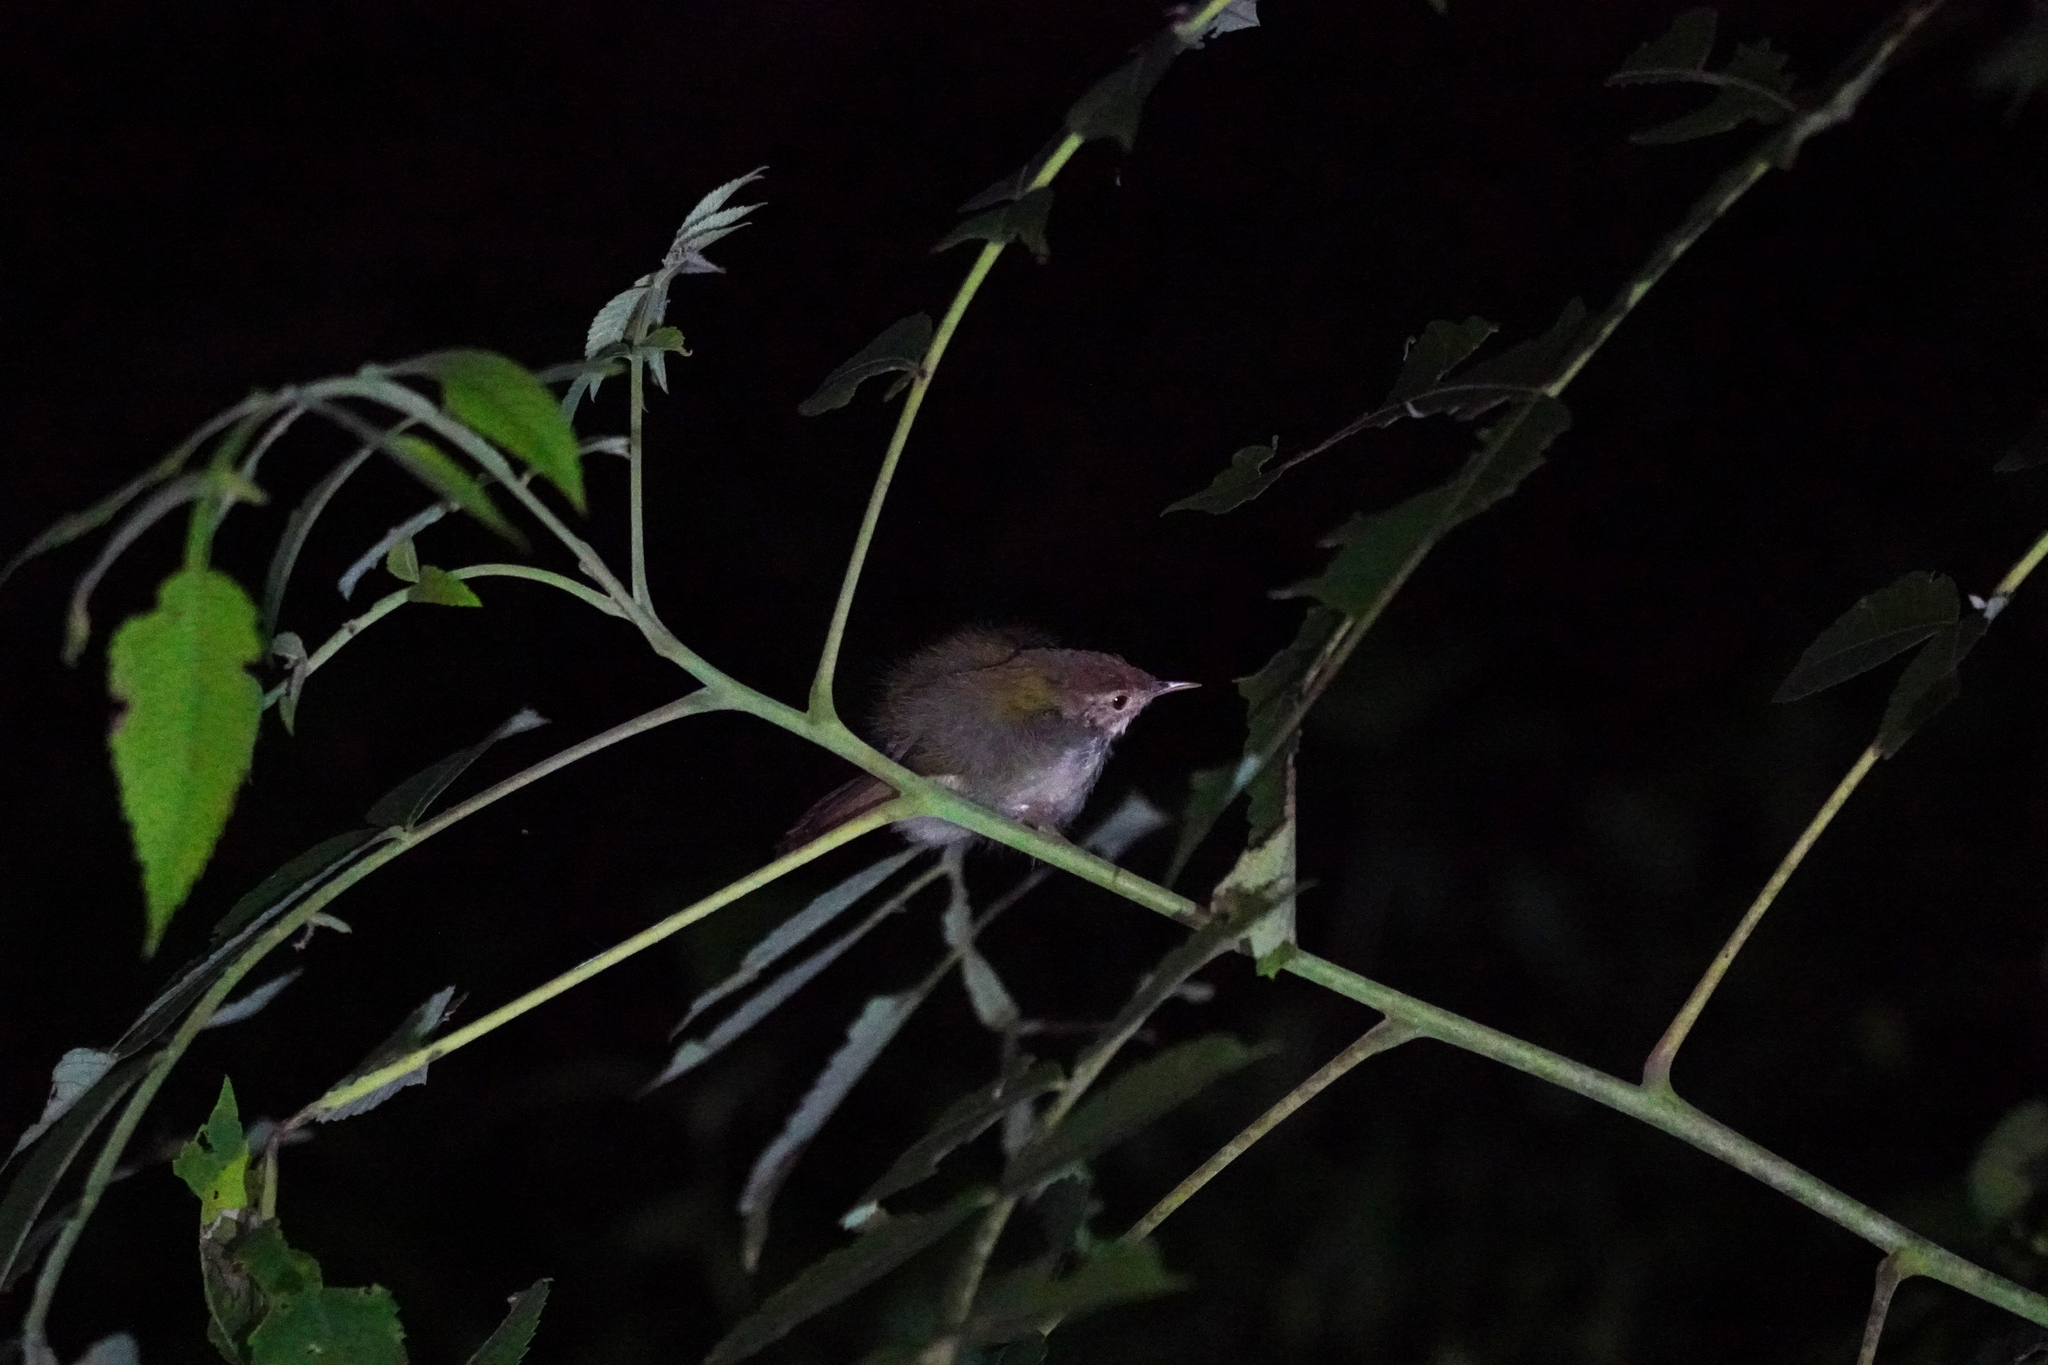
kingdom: Animalia
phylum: Chordata
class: Aves
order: Passeriformes
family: Cisticolidae
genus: Orthotomus
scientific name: Orthotomus sutorius
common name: Common tailorbird
